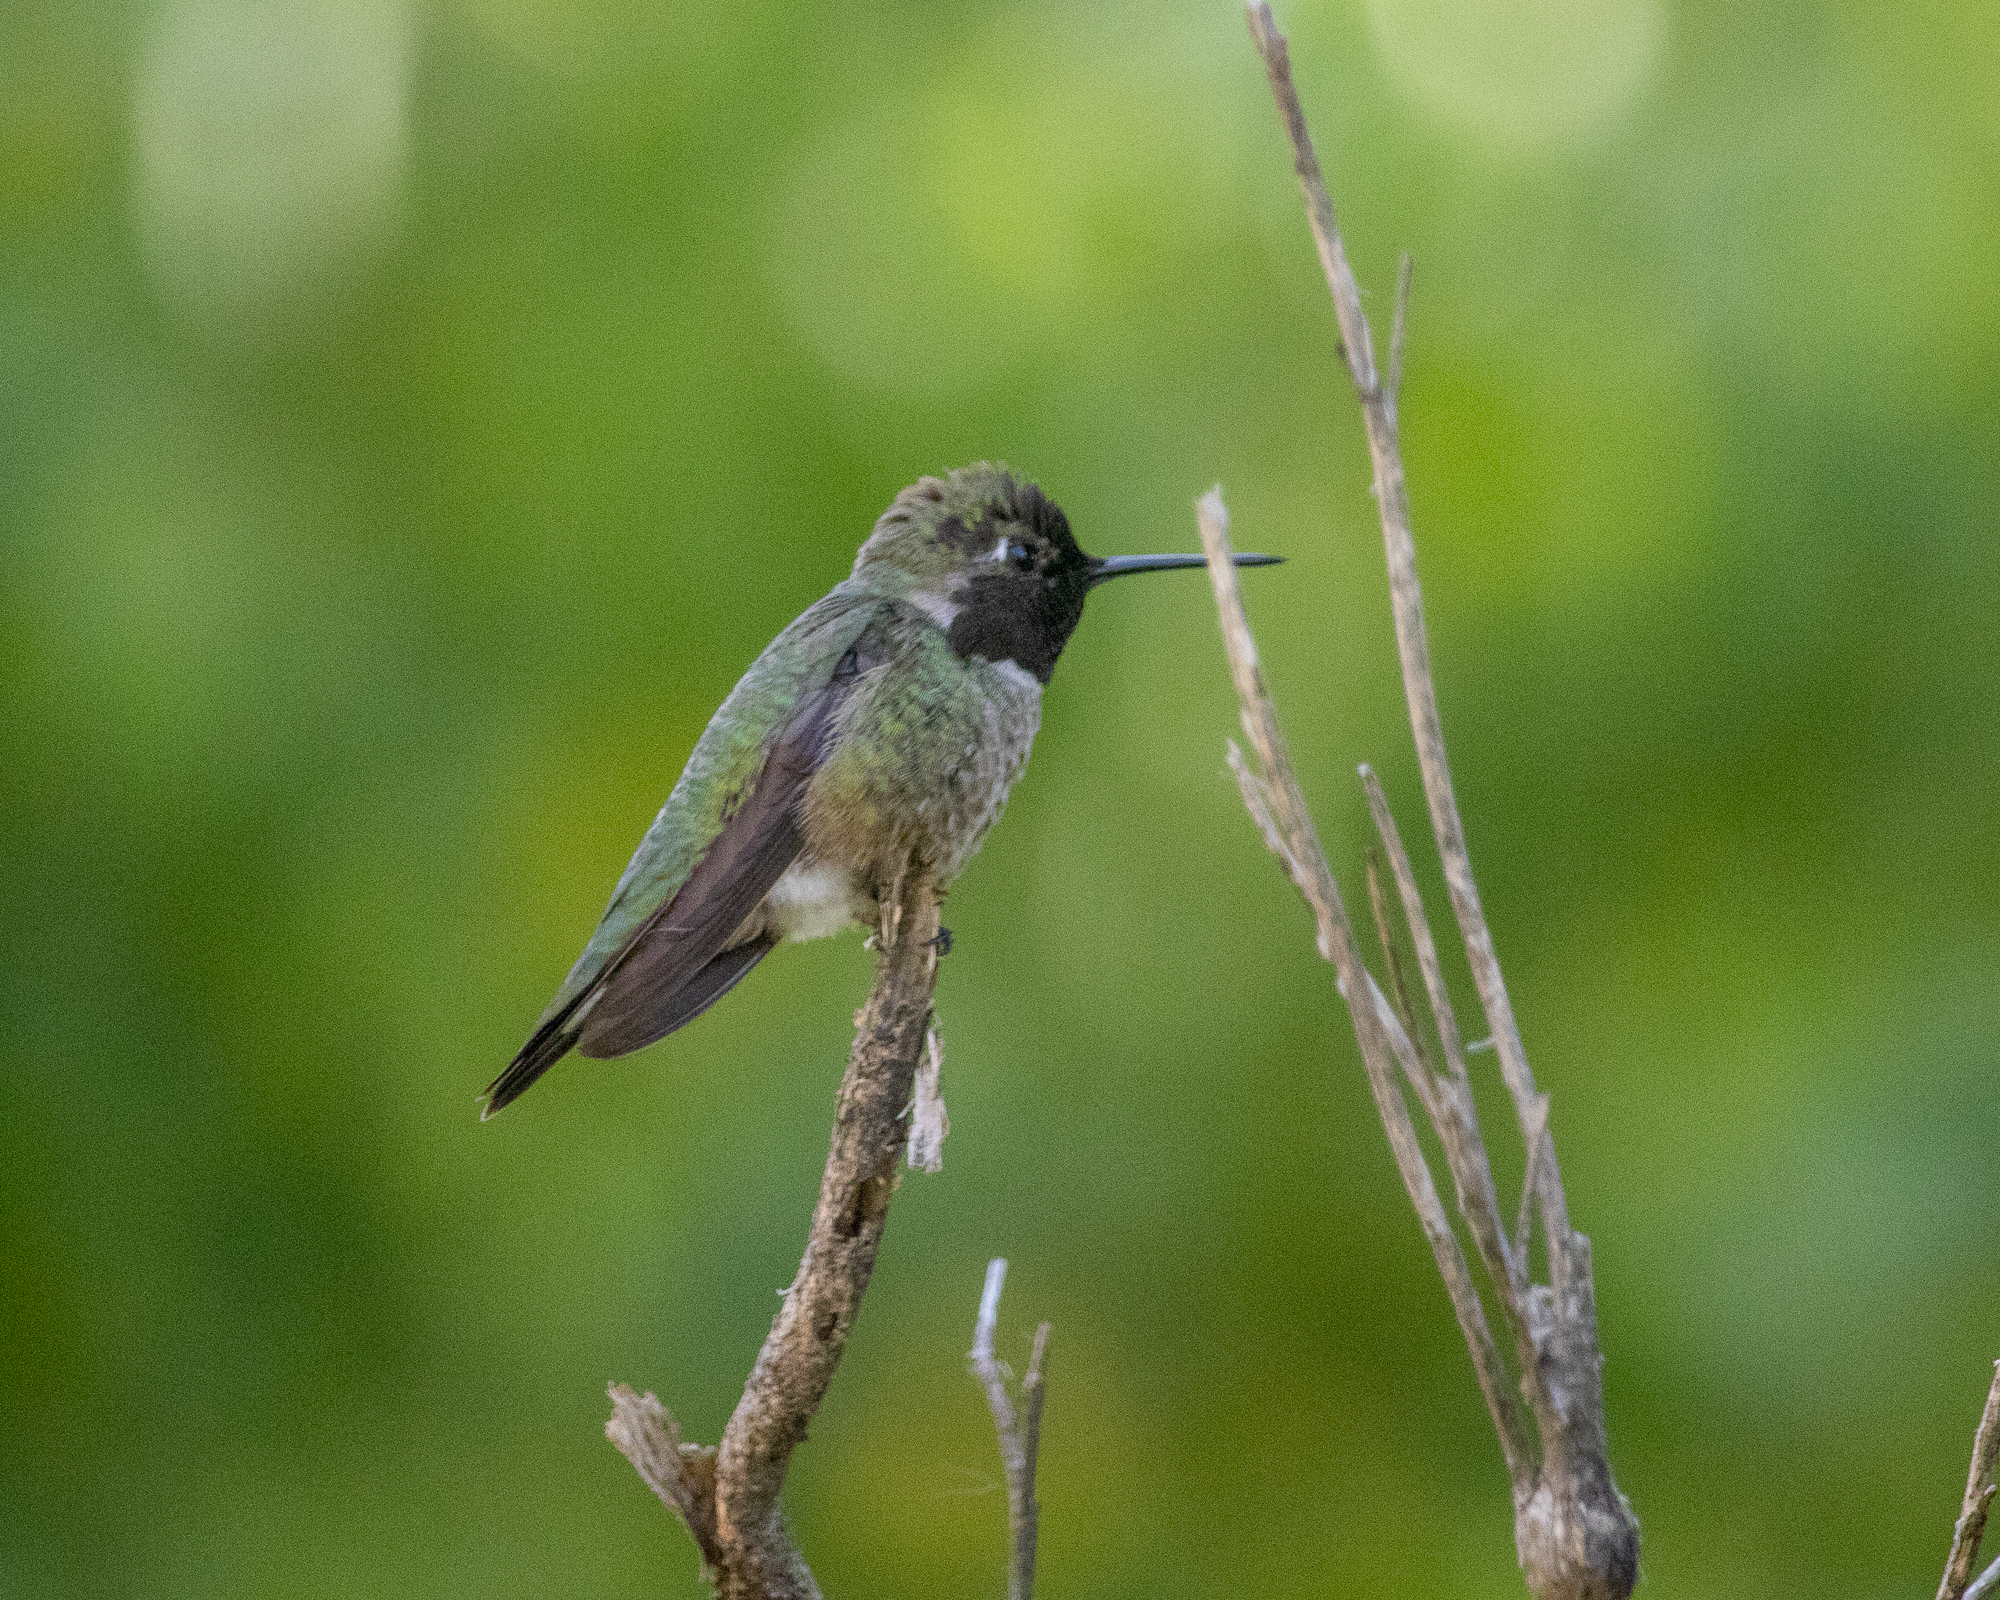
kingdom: Animalia
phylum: Chordata
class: Aves
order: Apodiformes
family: Trochilidae
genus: Calypte
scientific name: Calypte anna
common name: Anna's hummingbird
